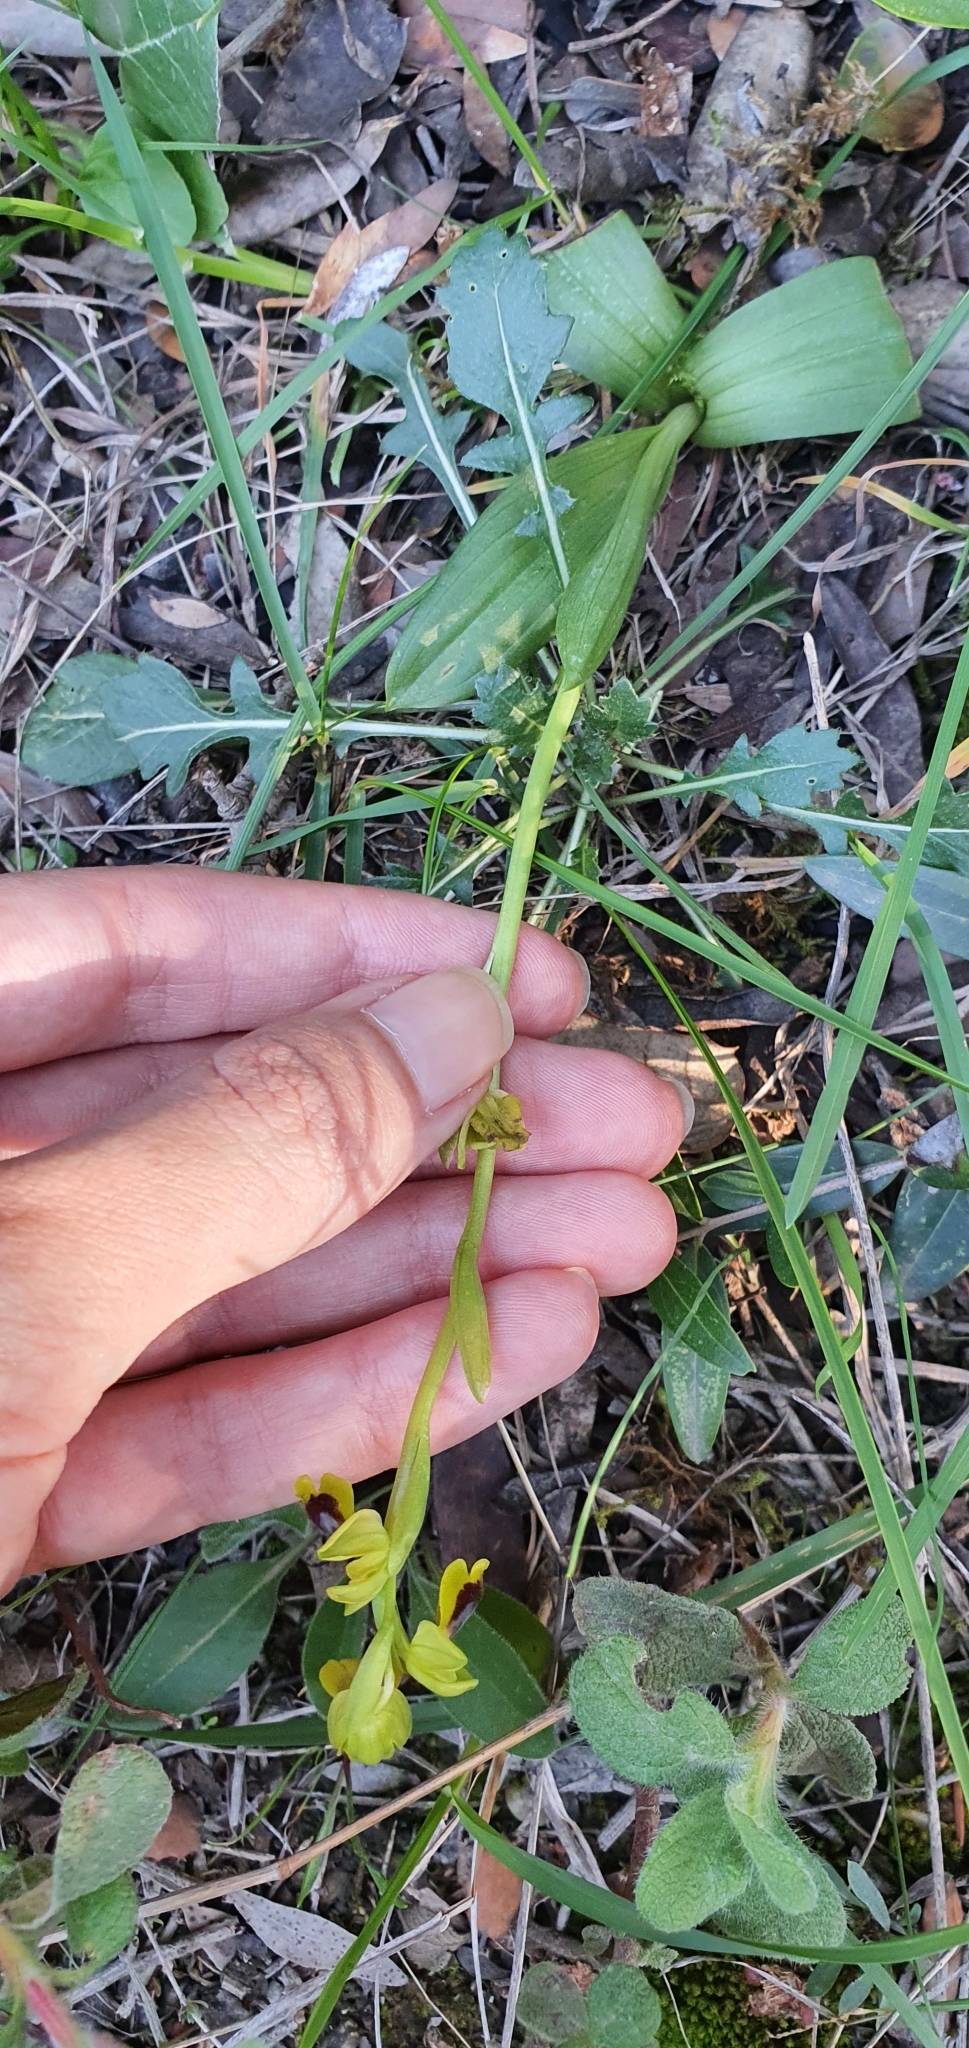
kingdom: Plantae
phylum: Tracheophyta
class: Liliopsida
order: Asparagales
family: Orchidaceae
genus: Ophrys
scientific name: Ophrys battandieri
